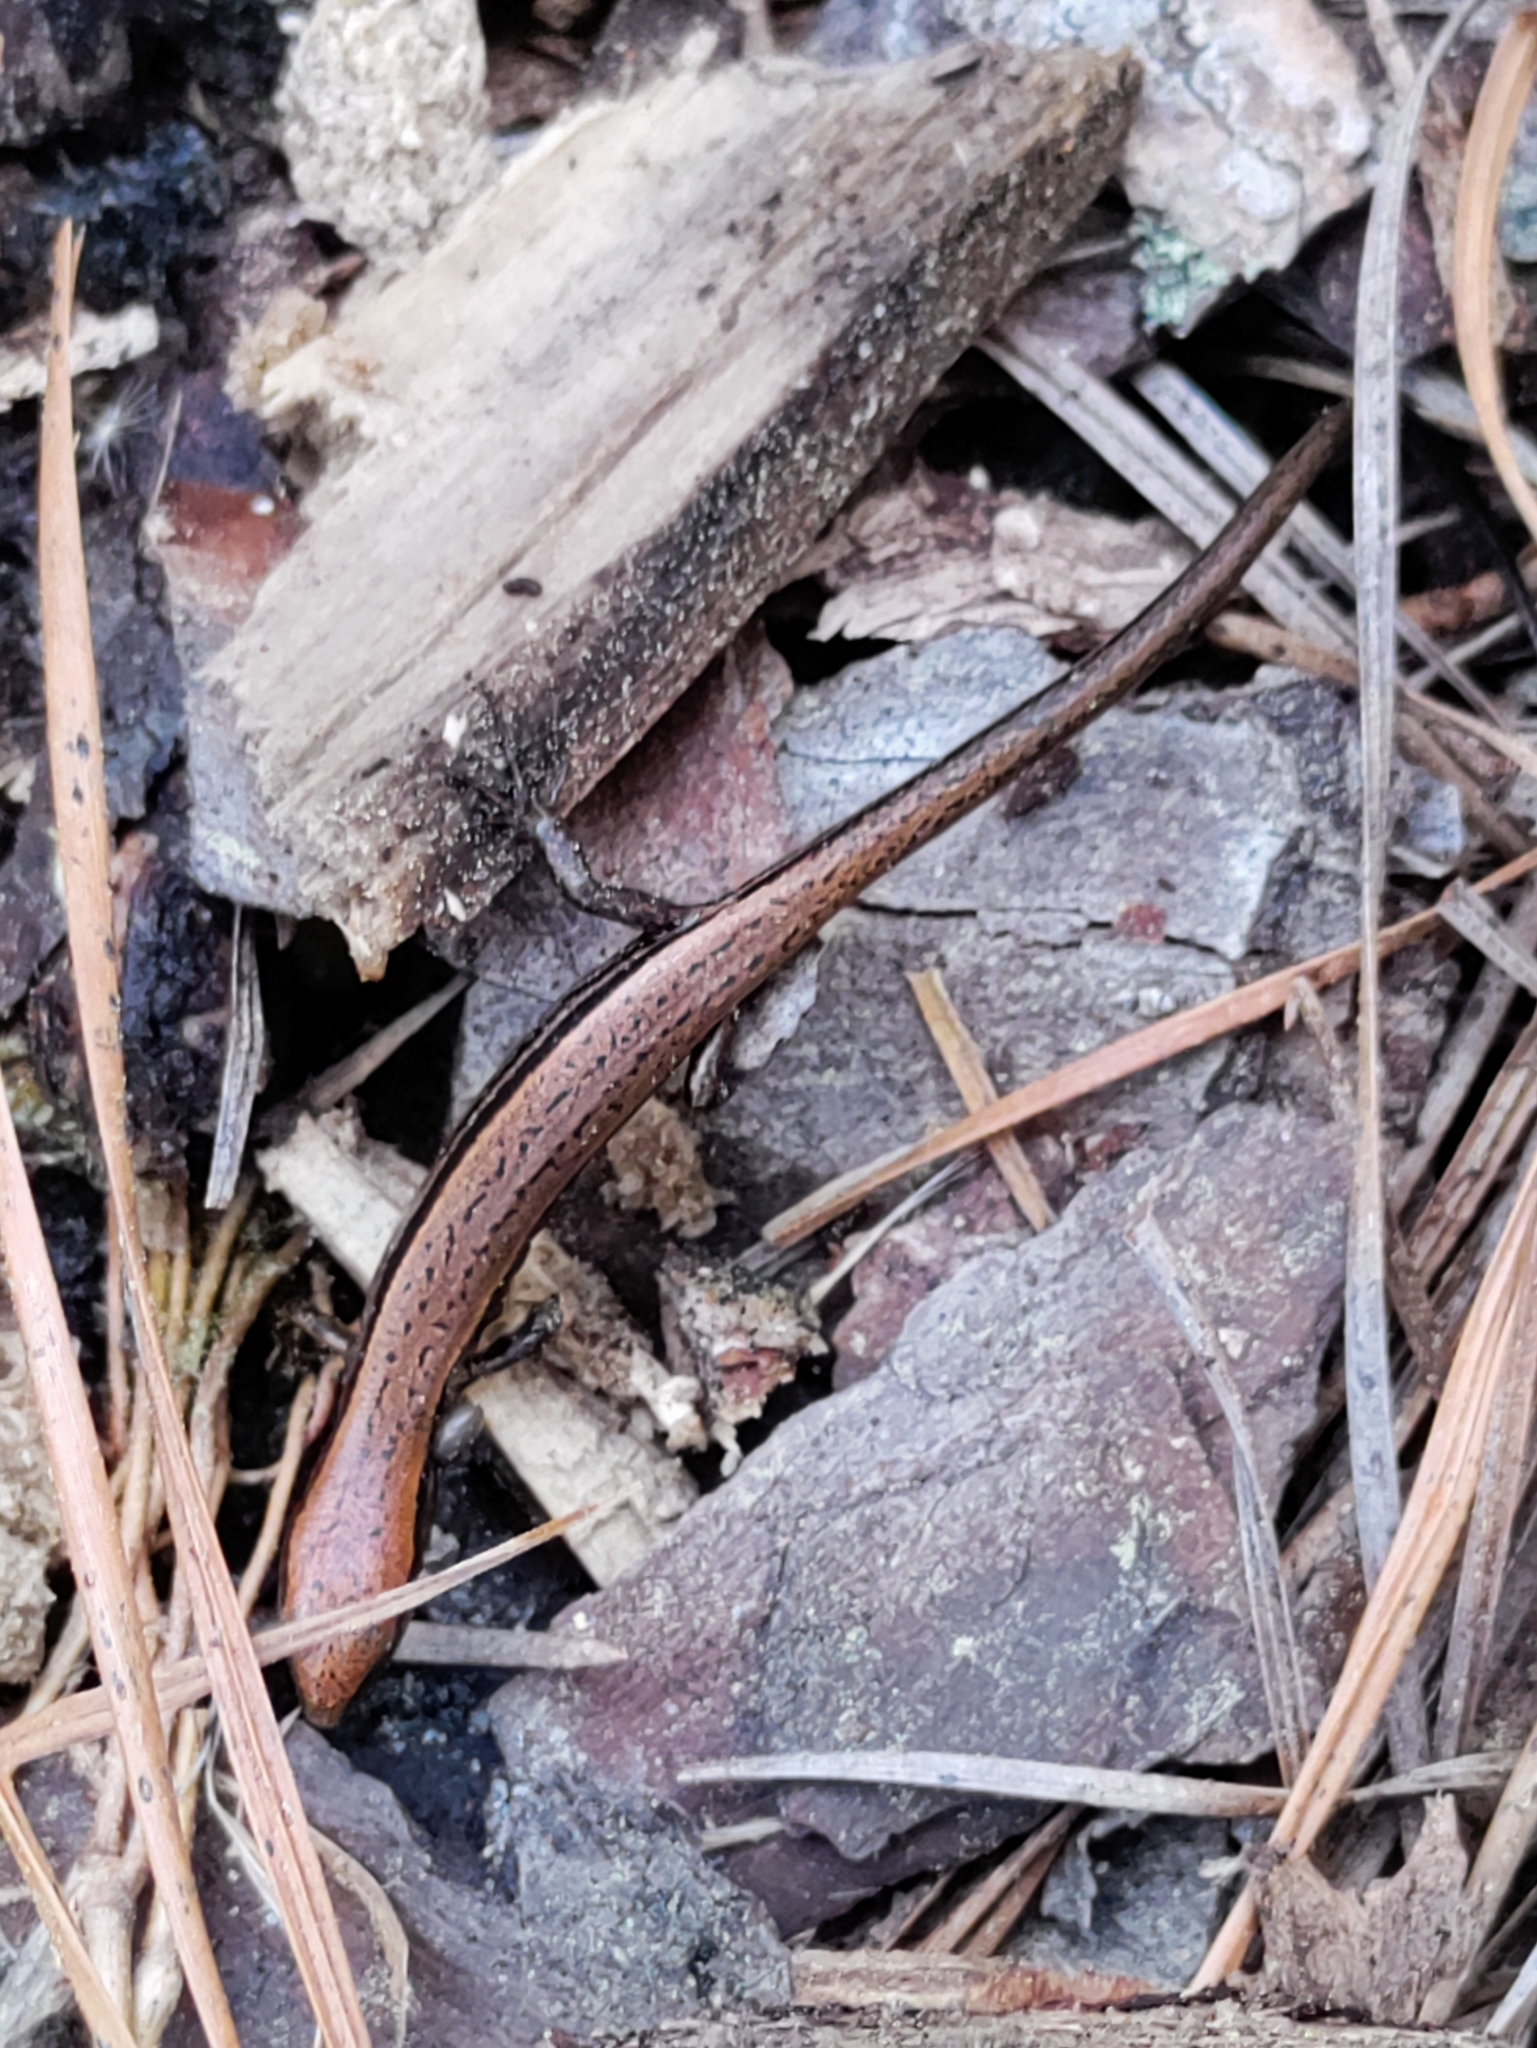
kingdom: Animalia
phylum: Chordata
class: Squamata
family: Scincidae
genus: Scincella
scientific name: Scincella lateralis
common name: Ground skink
